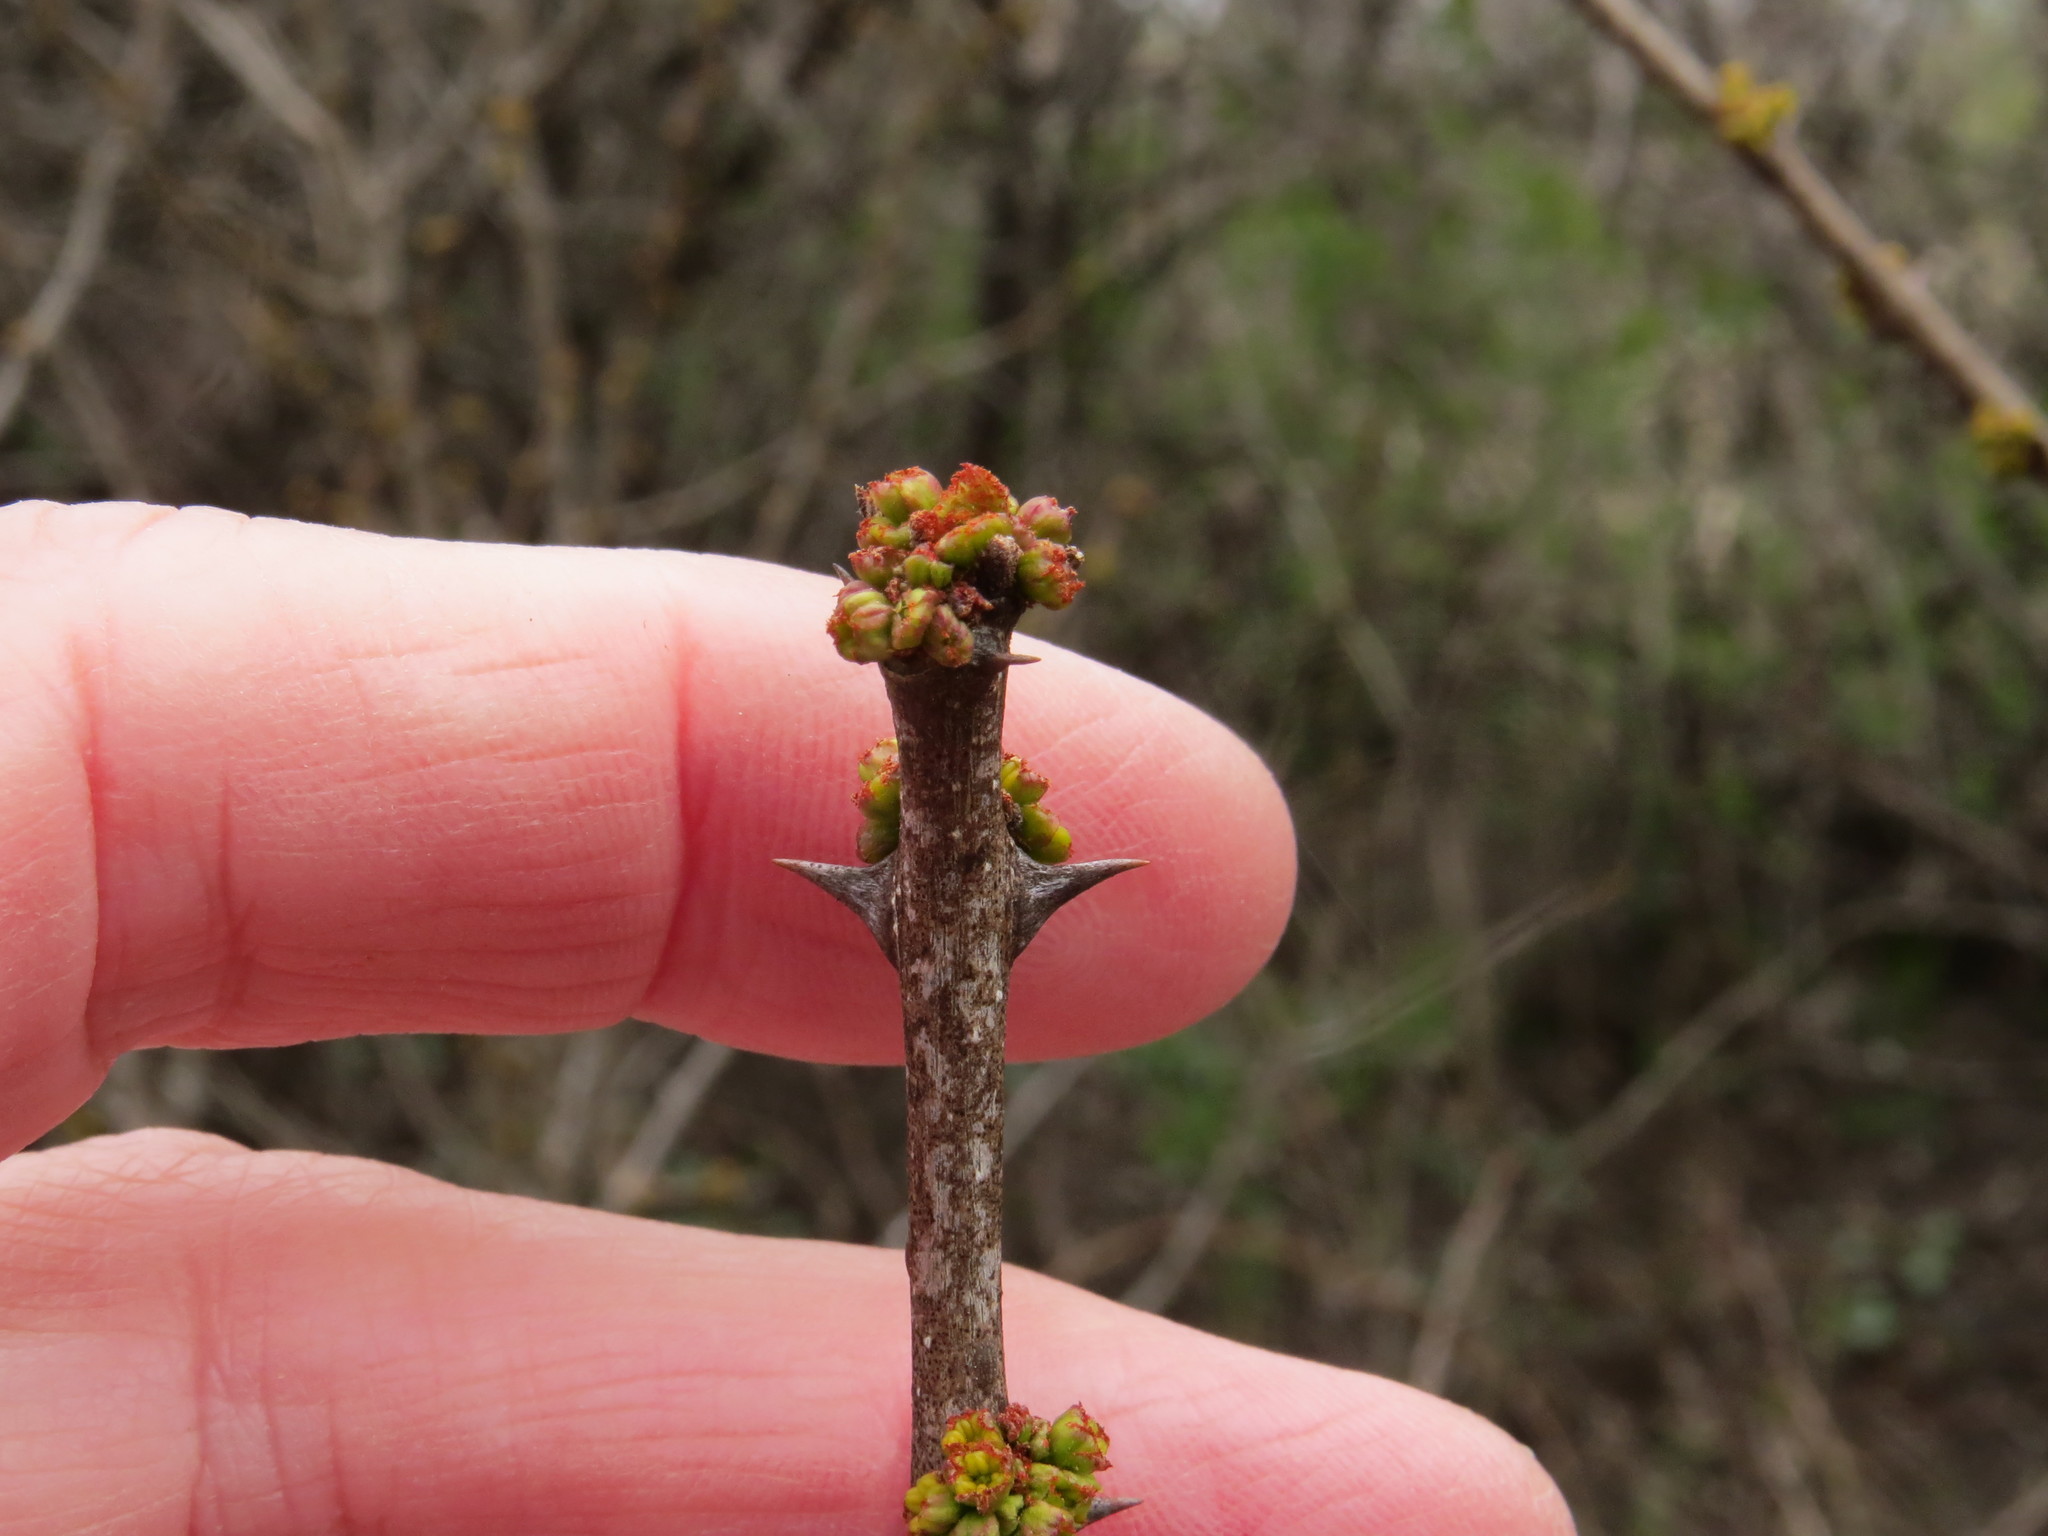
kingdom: Plantae
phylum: Tracheophyta
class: Magnoliopsida
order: Sapindales
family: Rutaceae
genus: Zanthoxylum
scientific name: Zanthoxylum americanum
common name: Northern prickly-ash
